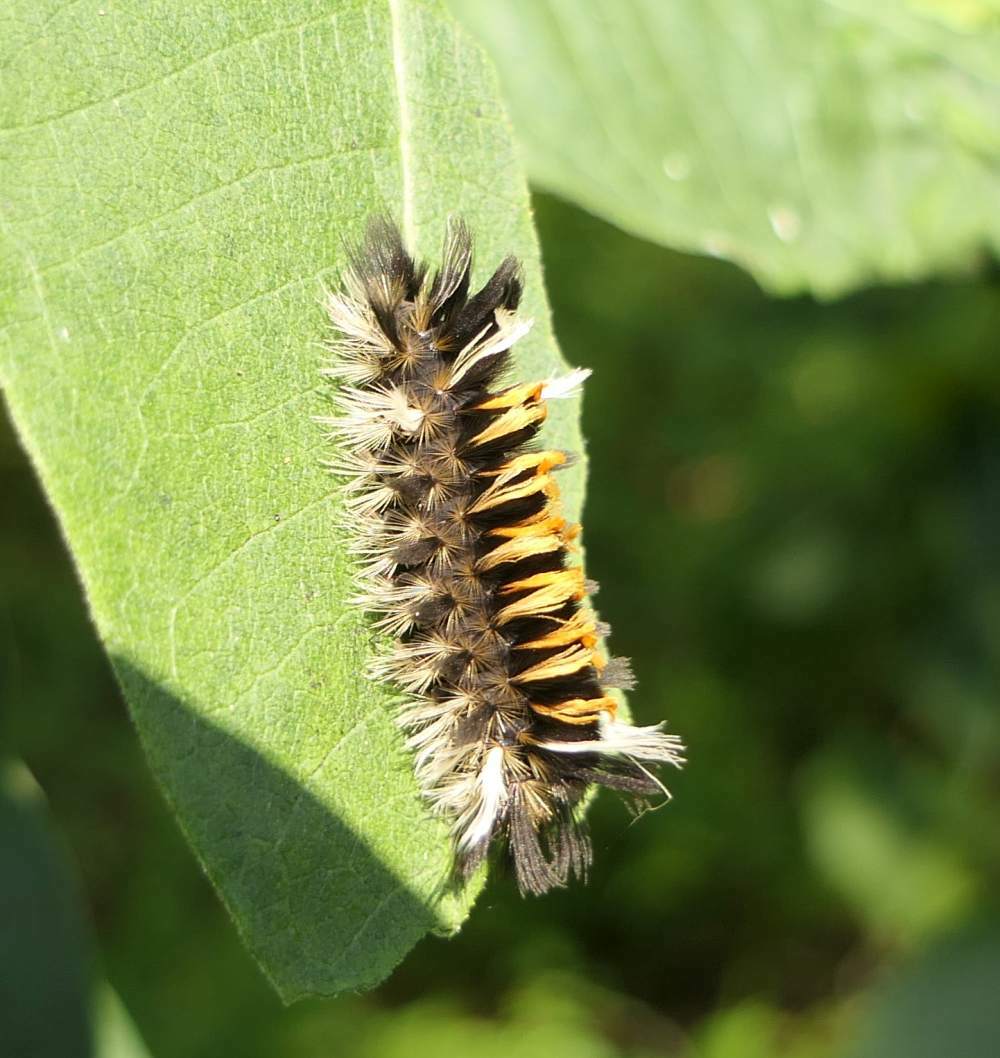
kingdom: Animalia
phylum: Arthropoda
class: Insecta
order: Lepidoptera
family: Erebidae
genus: Euchaetes
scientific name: Euchaetes egle
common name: Milkweed tussock moth
